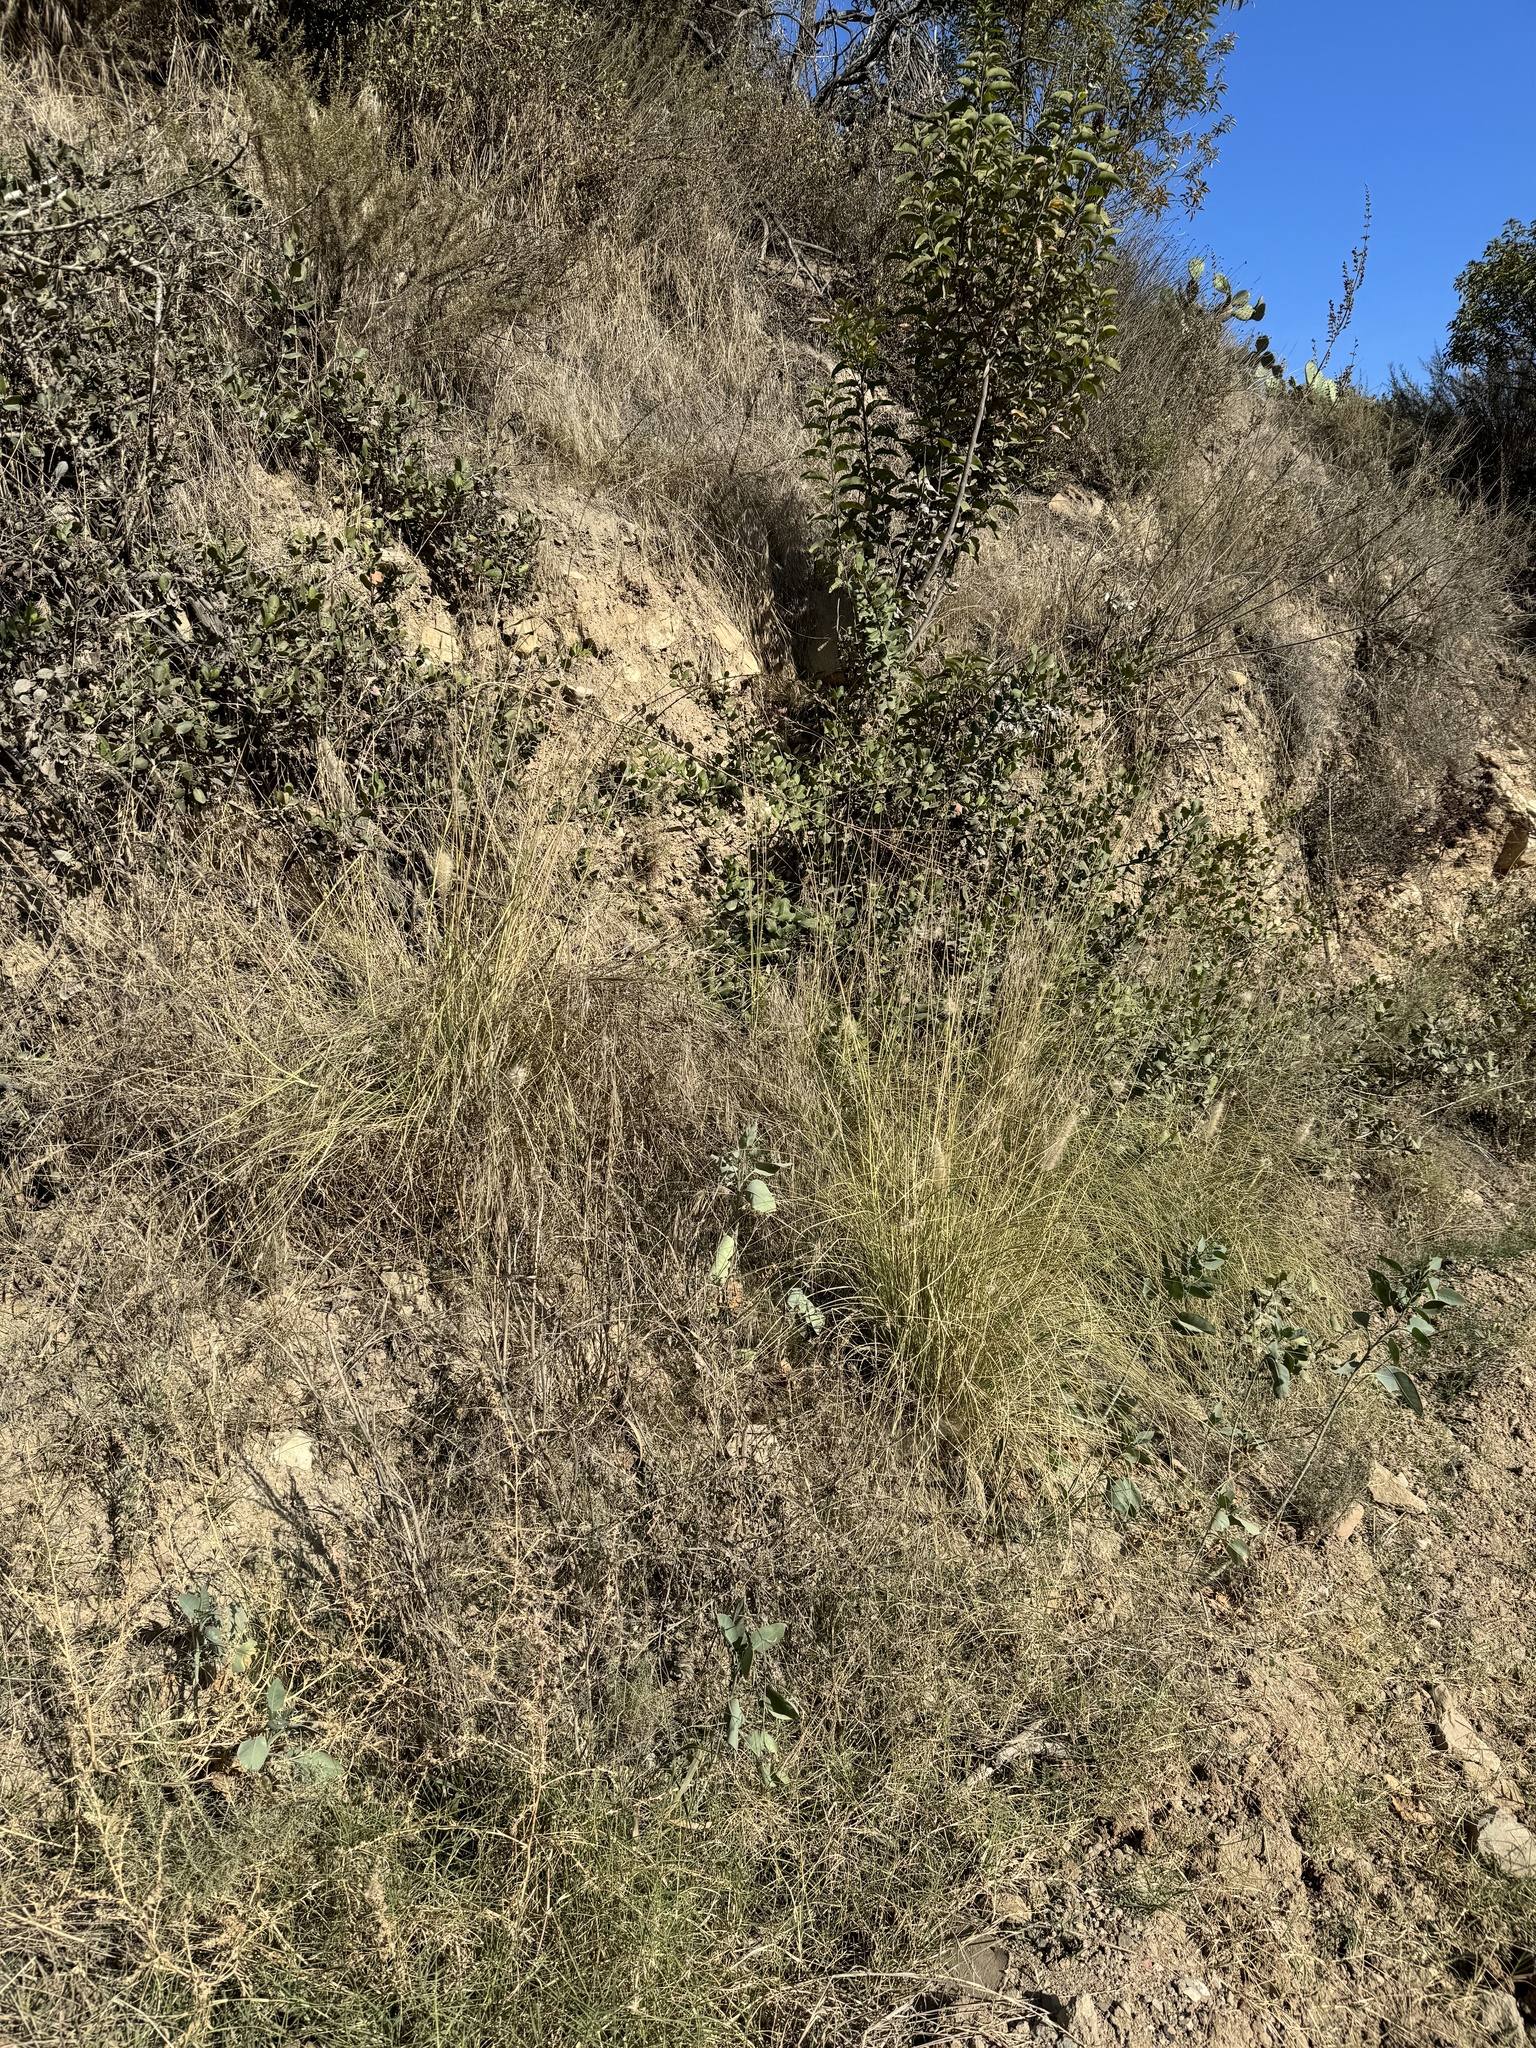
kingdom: Plantae
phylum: Tracheophyta
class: Liliopsida
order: Poales
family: Poaceae
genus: Cenchrus
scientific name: Cenchrus setaceus
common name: Crimson fountaingrass
